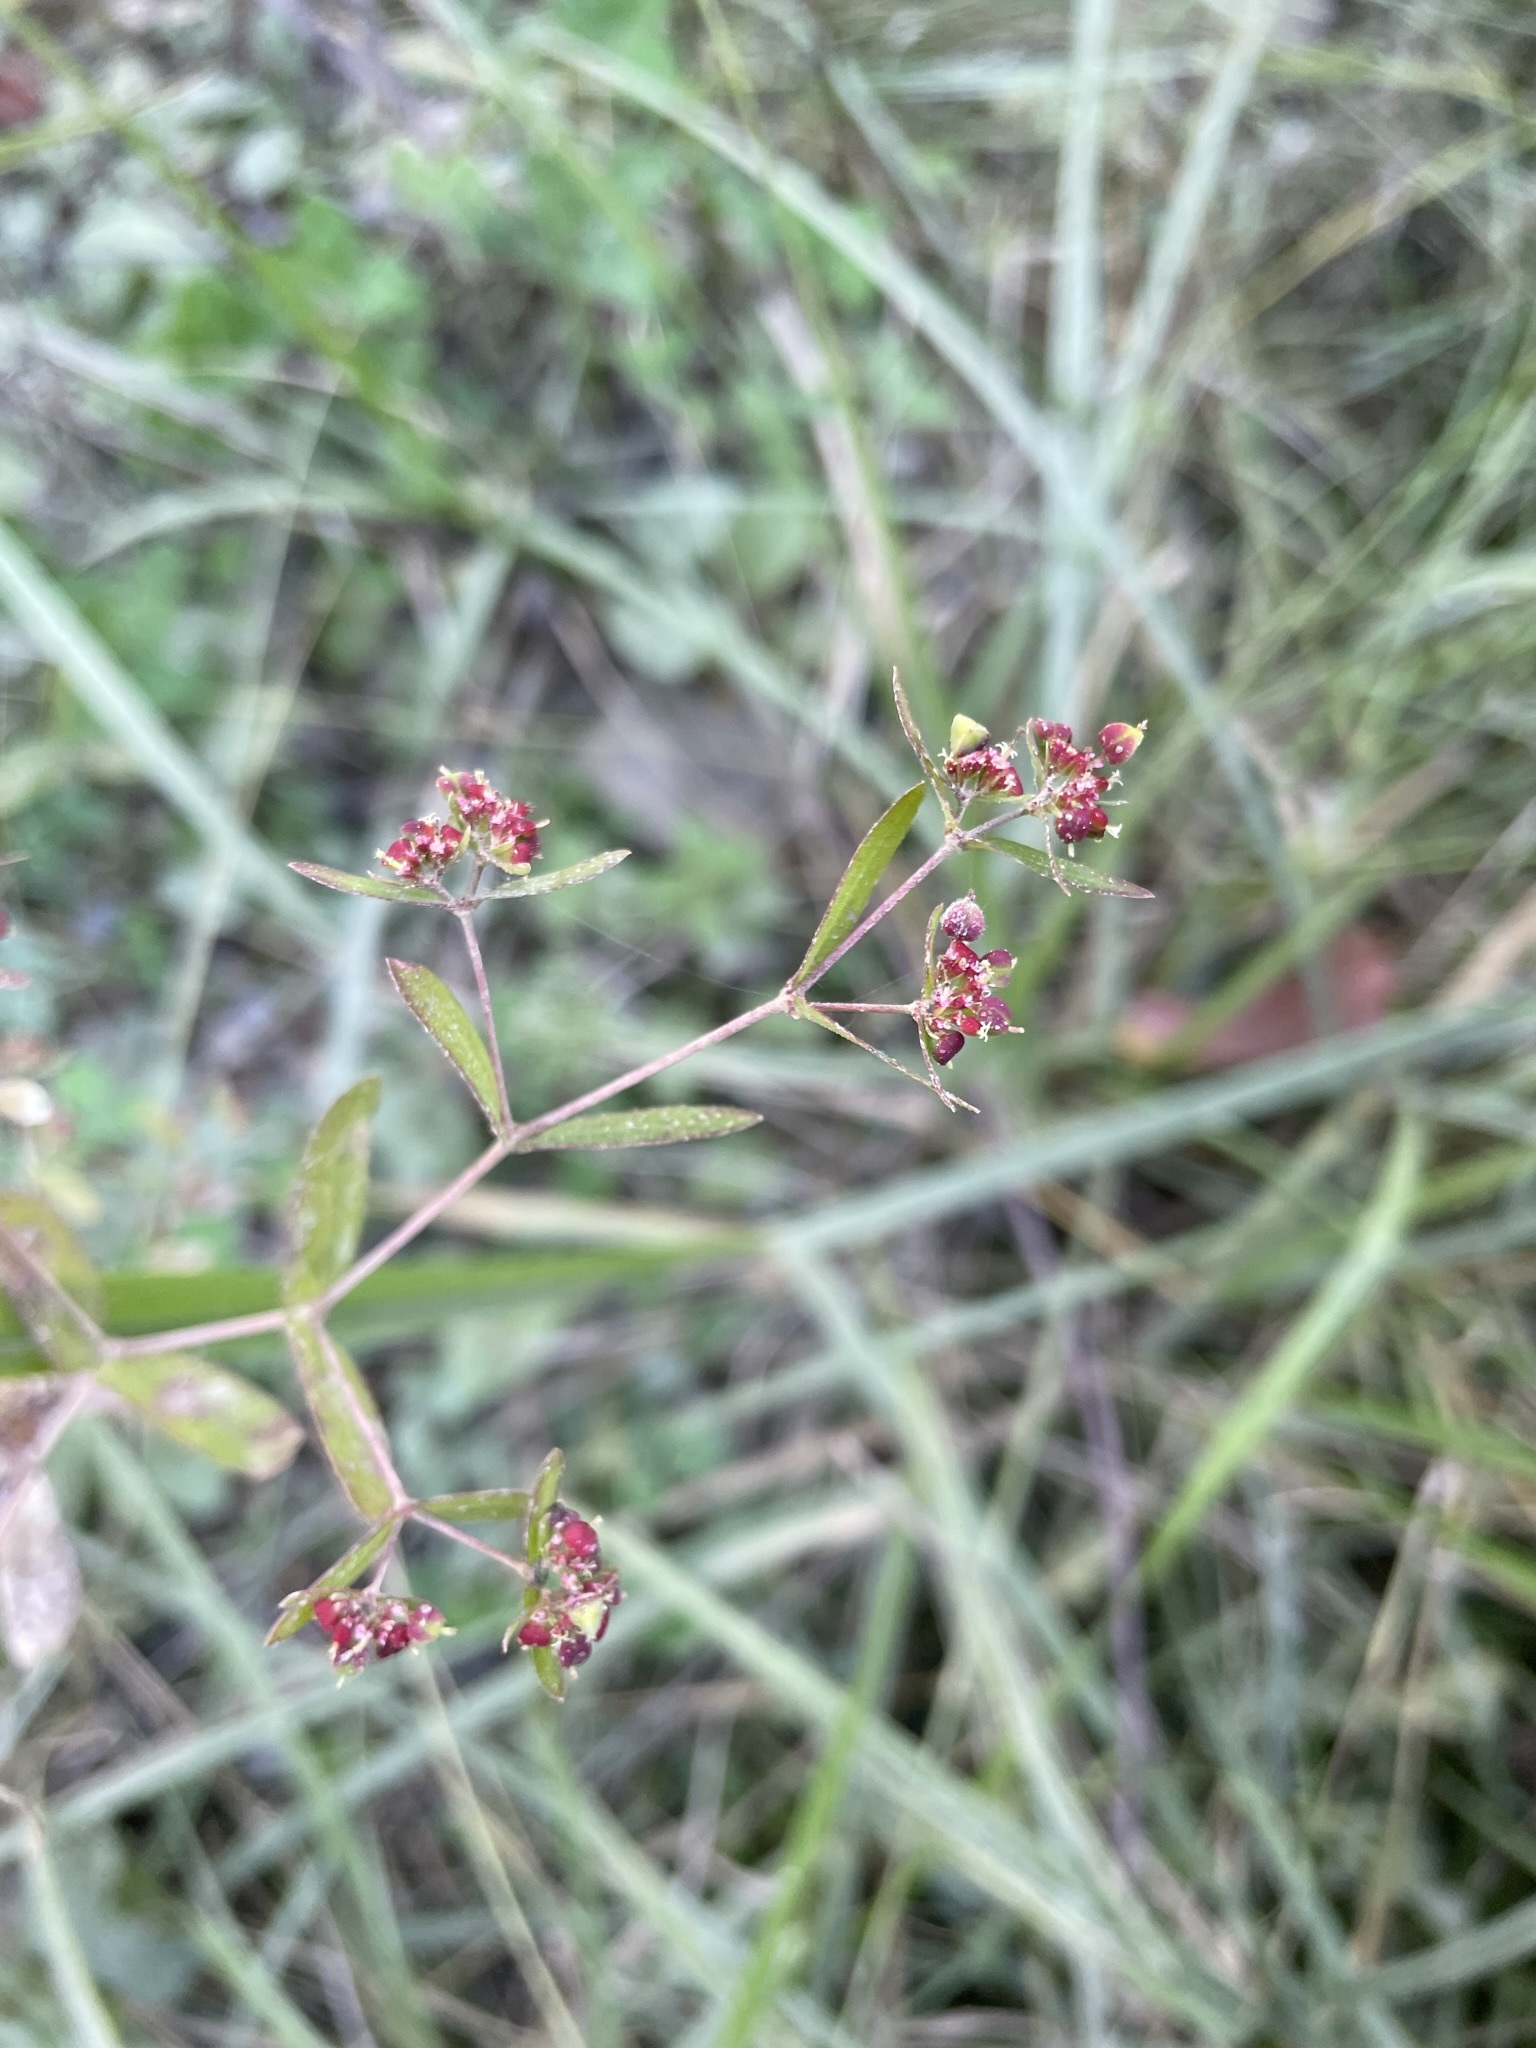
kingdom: Plantae
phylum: Tracheophyta
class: Magnoliopsida
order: Malpighiales
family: Euphorbiaceae
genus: Euphorbia
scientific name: Euphorbia nutans
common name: Eyebane
